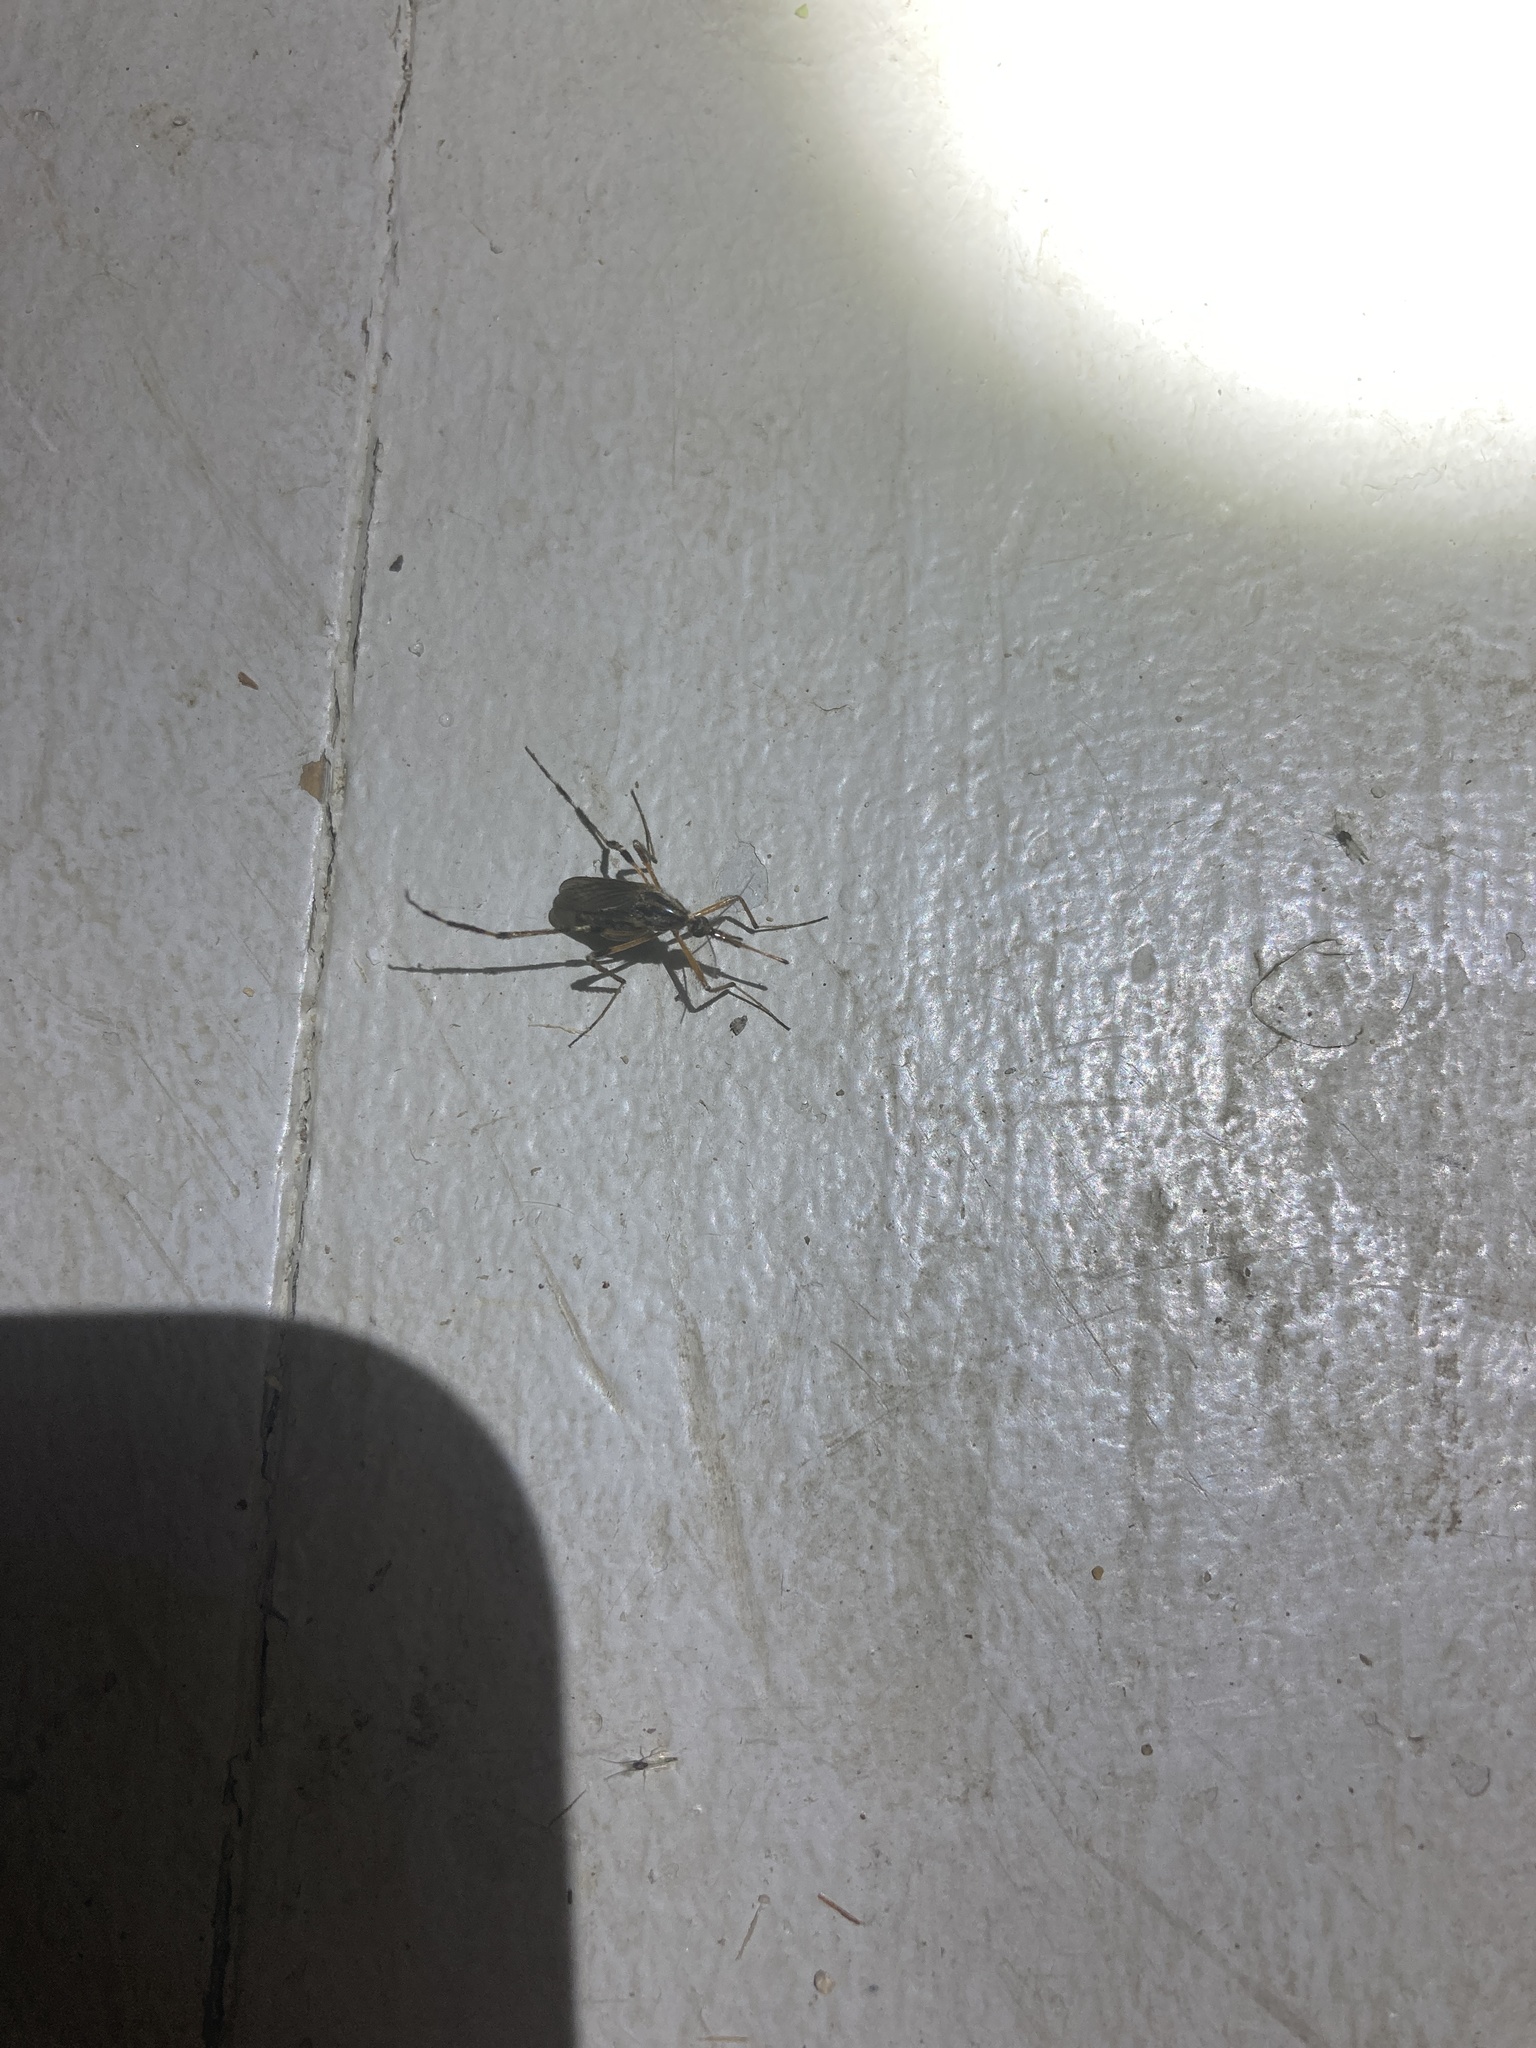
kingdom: Animalia
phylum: Arthropoda
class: Insecta
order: Diptera
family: Culicidae
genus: Psorophora
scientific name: Psorophora ciliata
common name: Gallinipper
